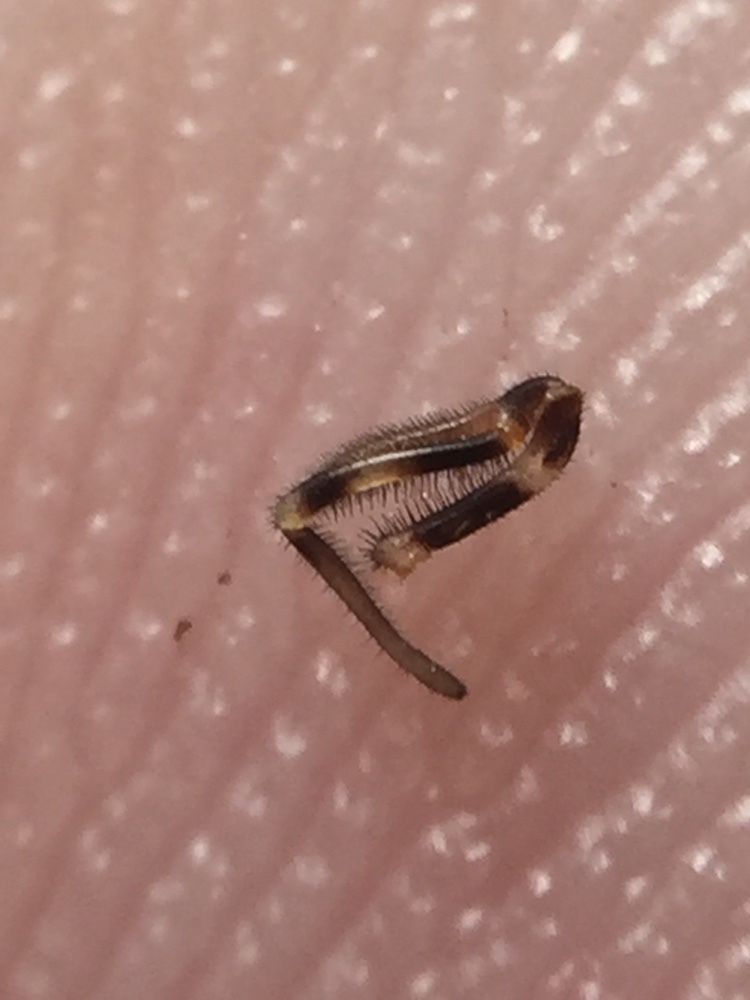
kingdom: Animalia
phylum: Arthropoda
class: Arachnida
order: Opiliones
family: Neopilionidae
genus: Megalopsalis
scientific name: Megalopsalis triascuta
